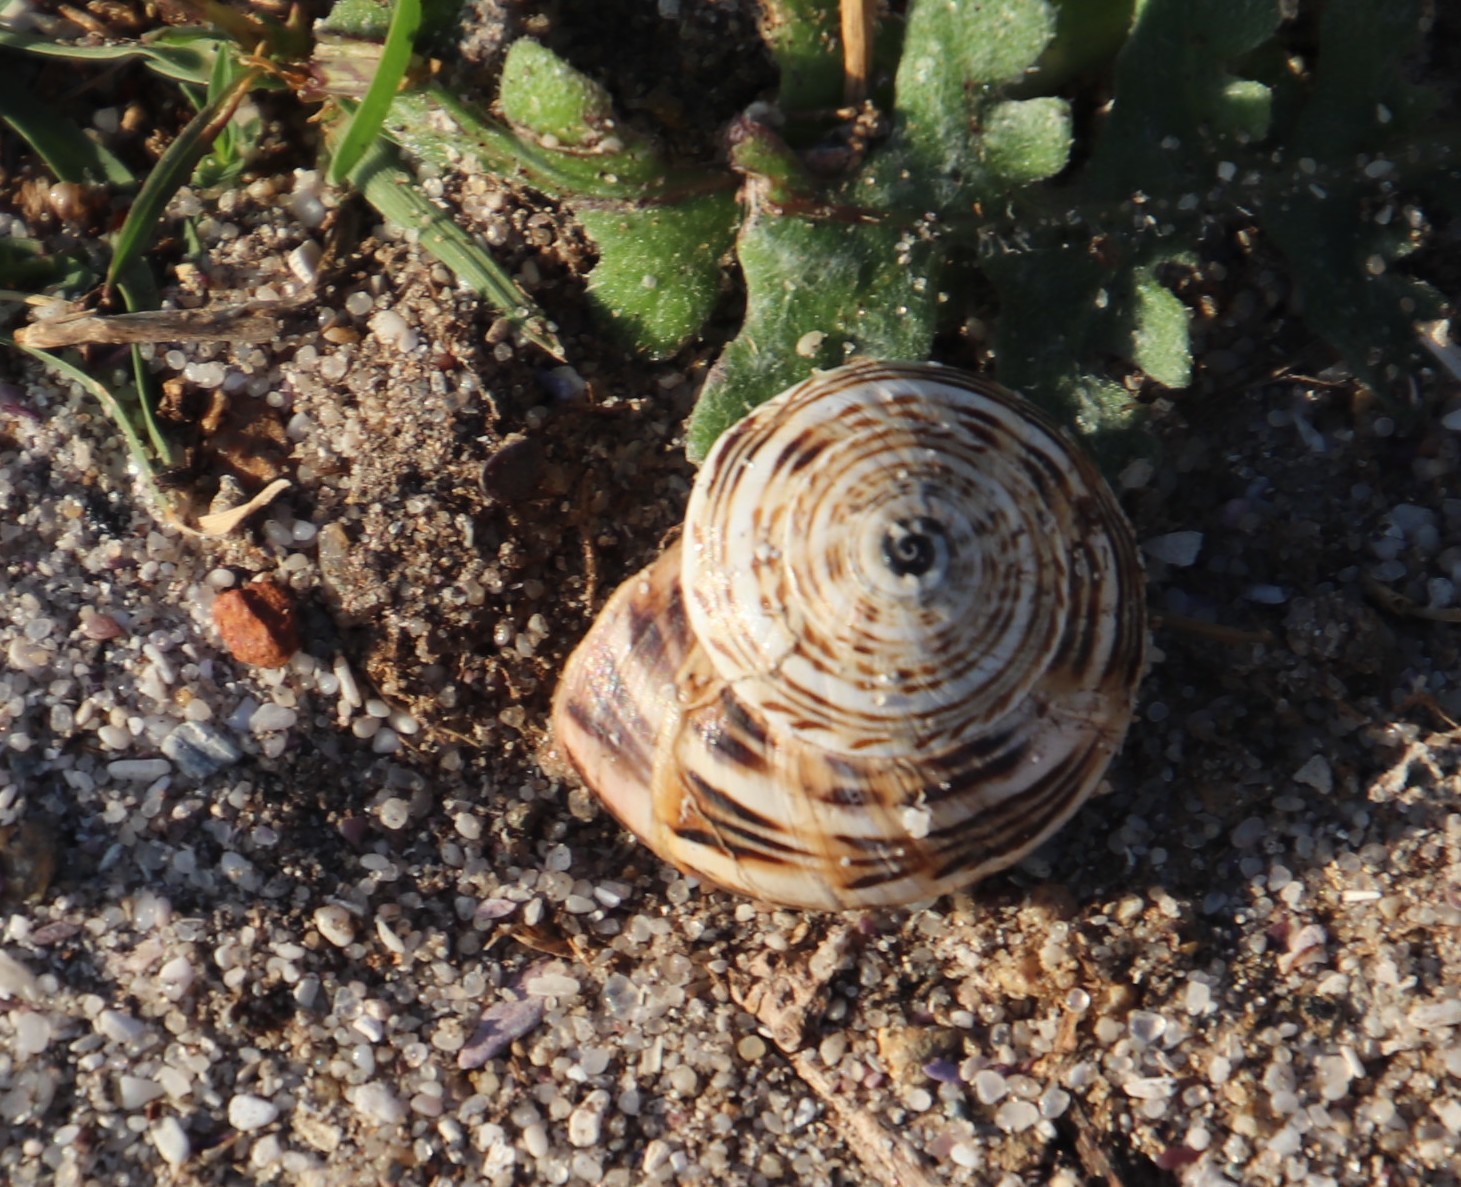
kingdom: Animalia
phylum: Mollusca
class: Gastropoda
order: Stylommatophora
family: Helicidae
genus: Theba
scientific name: Theba pisana
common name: White snail
